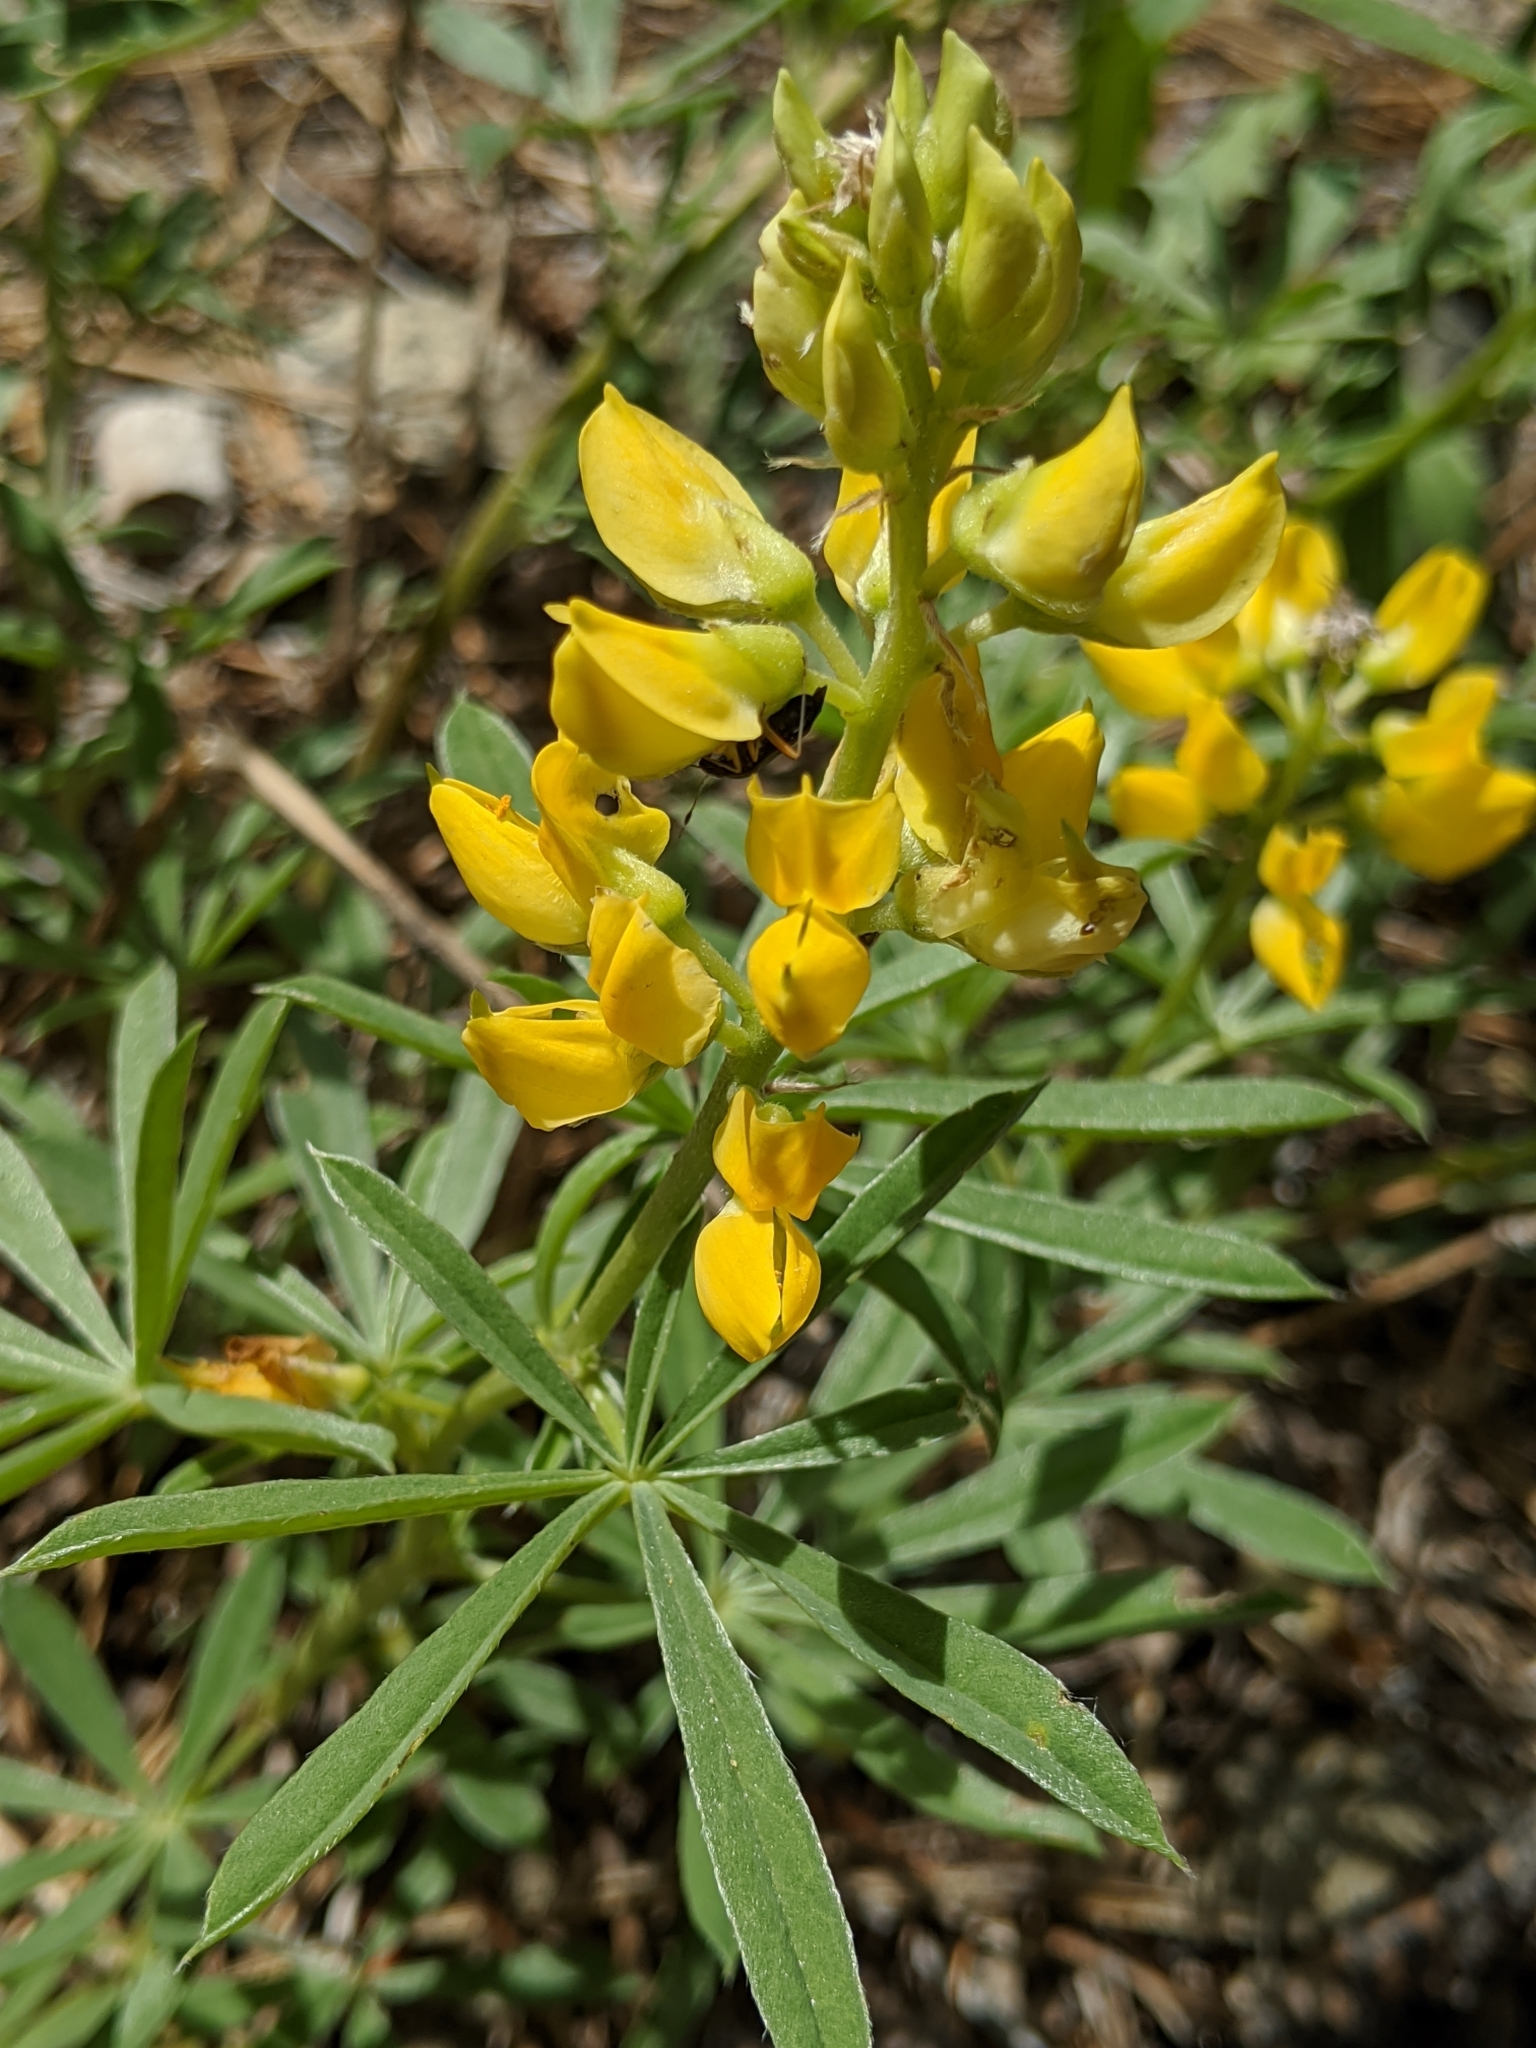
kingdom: Plantae
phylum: Tracheophyta
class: Magnoliopsida
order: Fabales
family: Fabaceae
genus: Lupinus
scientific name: Lupinus croceus
